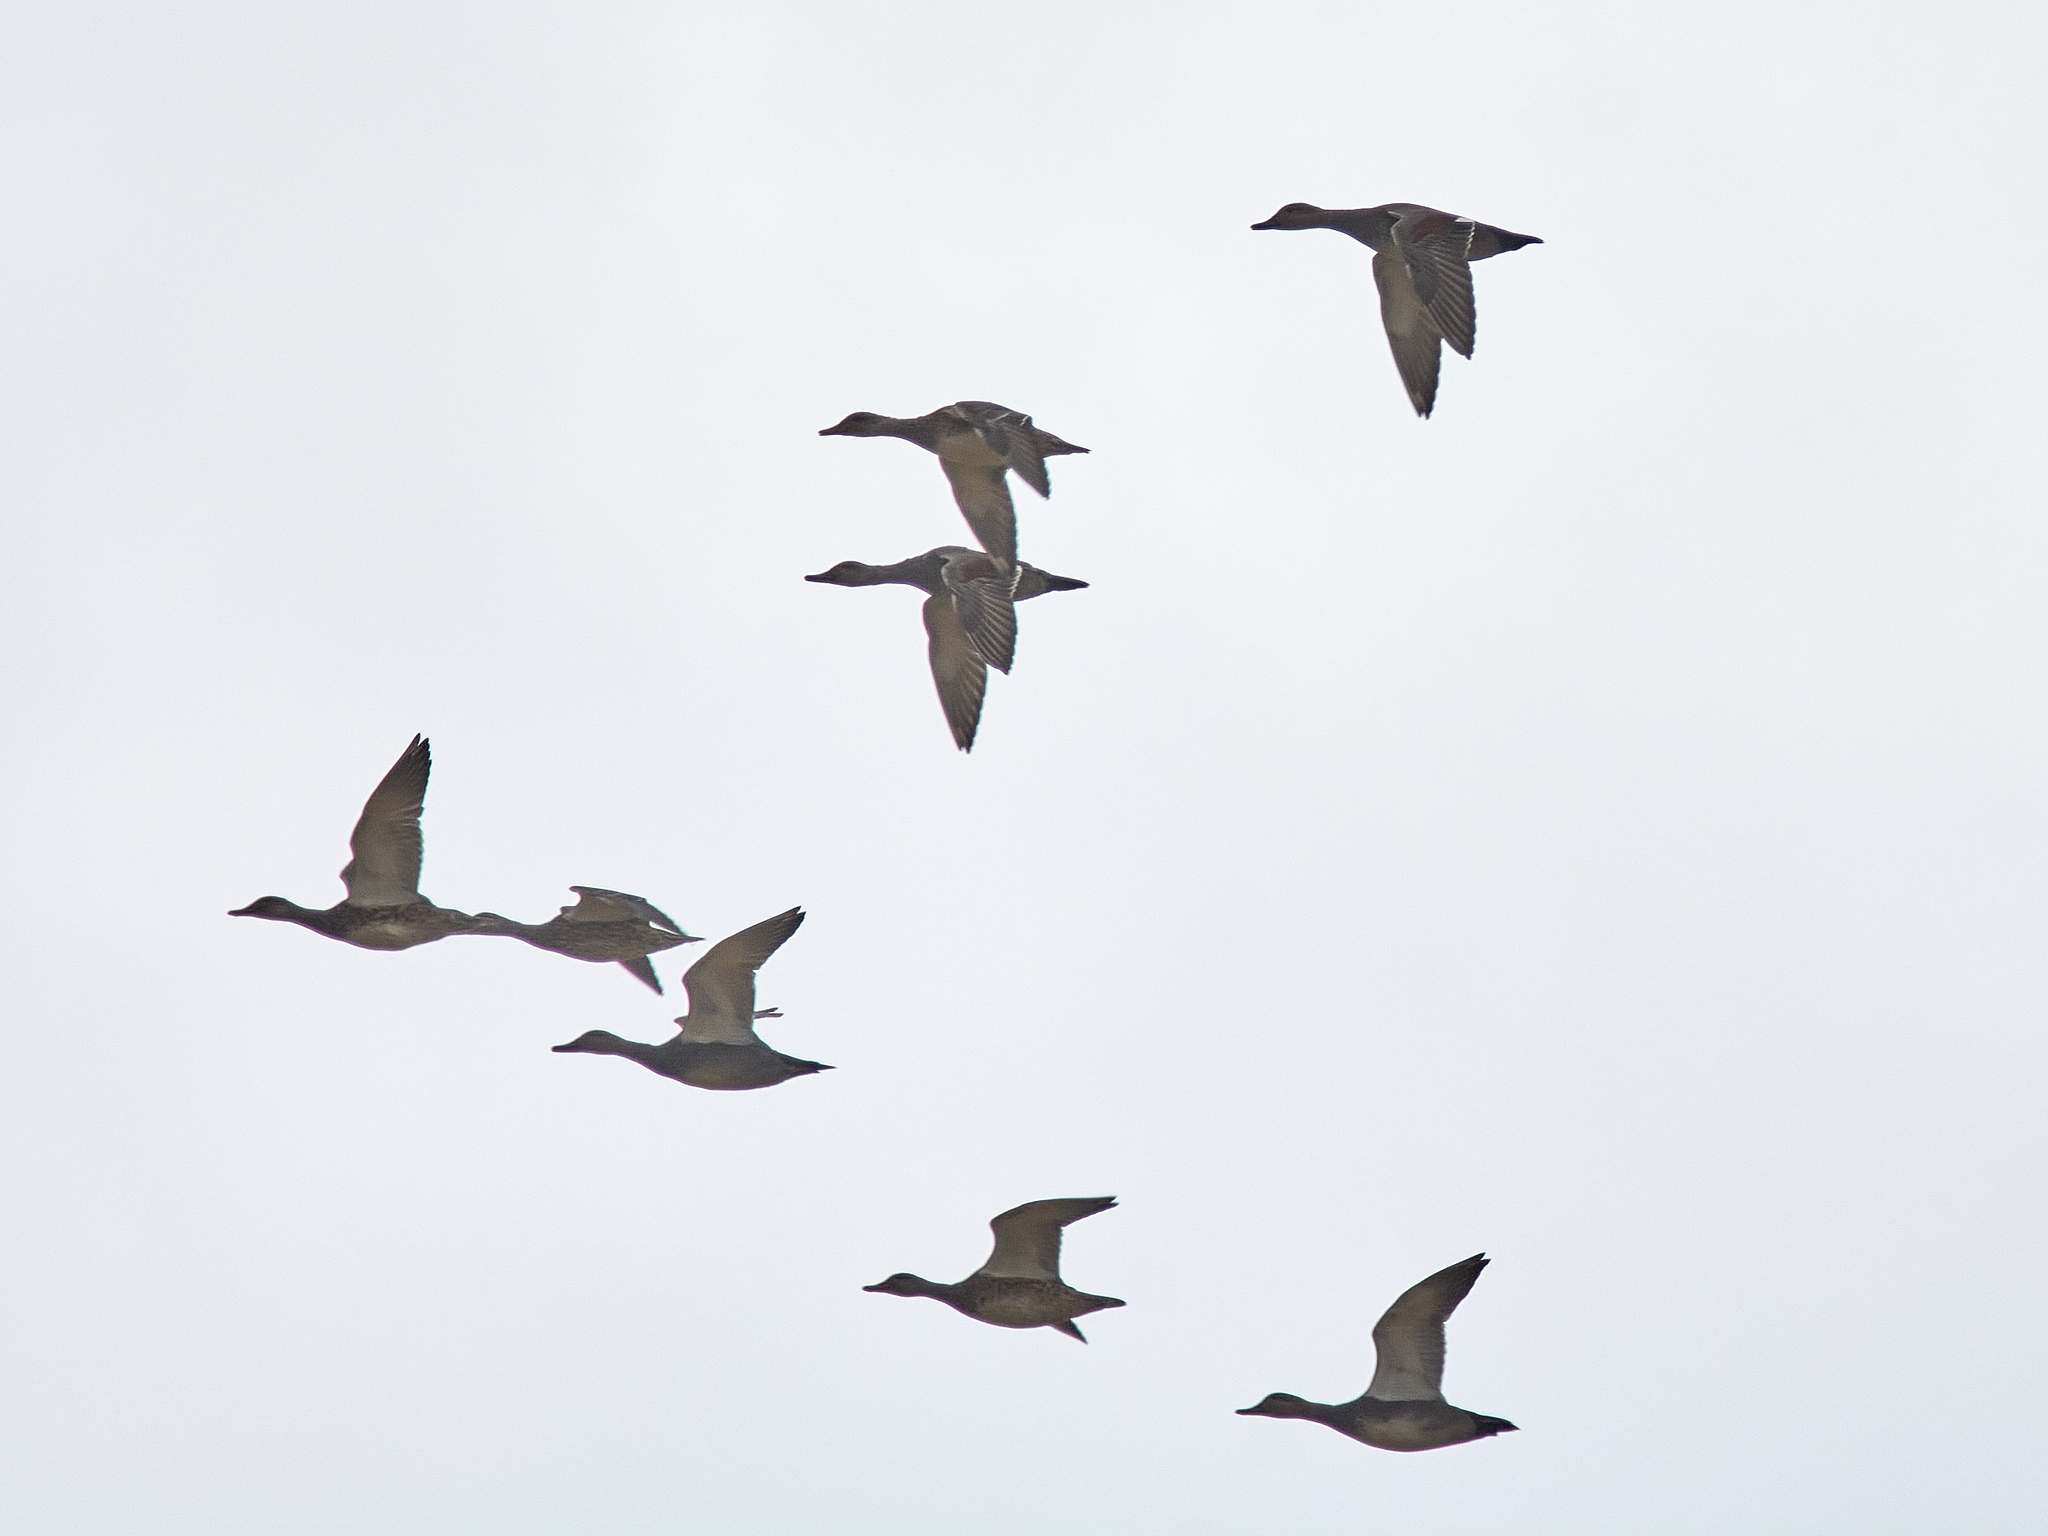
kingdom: Animalia
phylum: Chordata
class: Aves
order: Anseriformes
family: Anatidae
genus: Mareca
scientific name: Mareca strepera
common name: Gadwall
